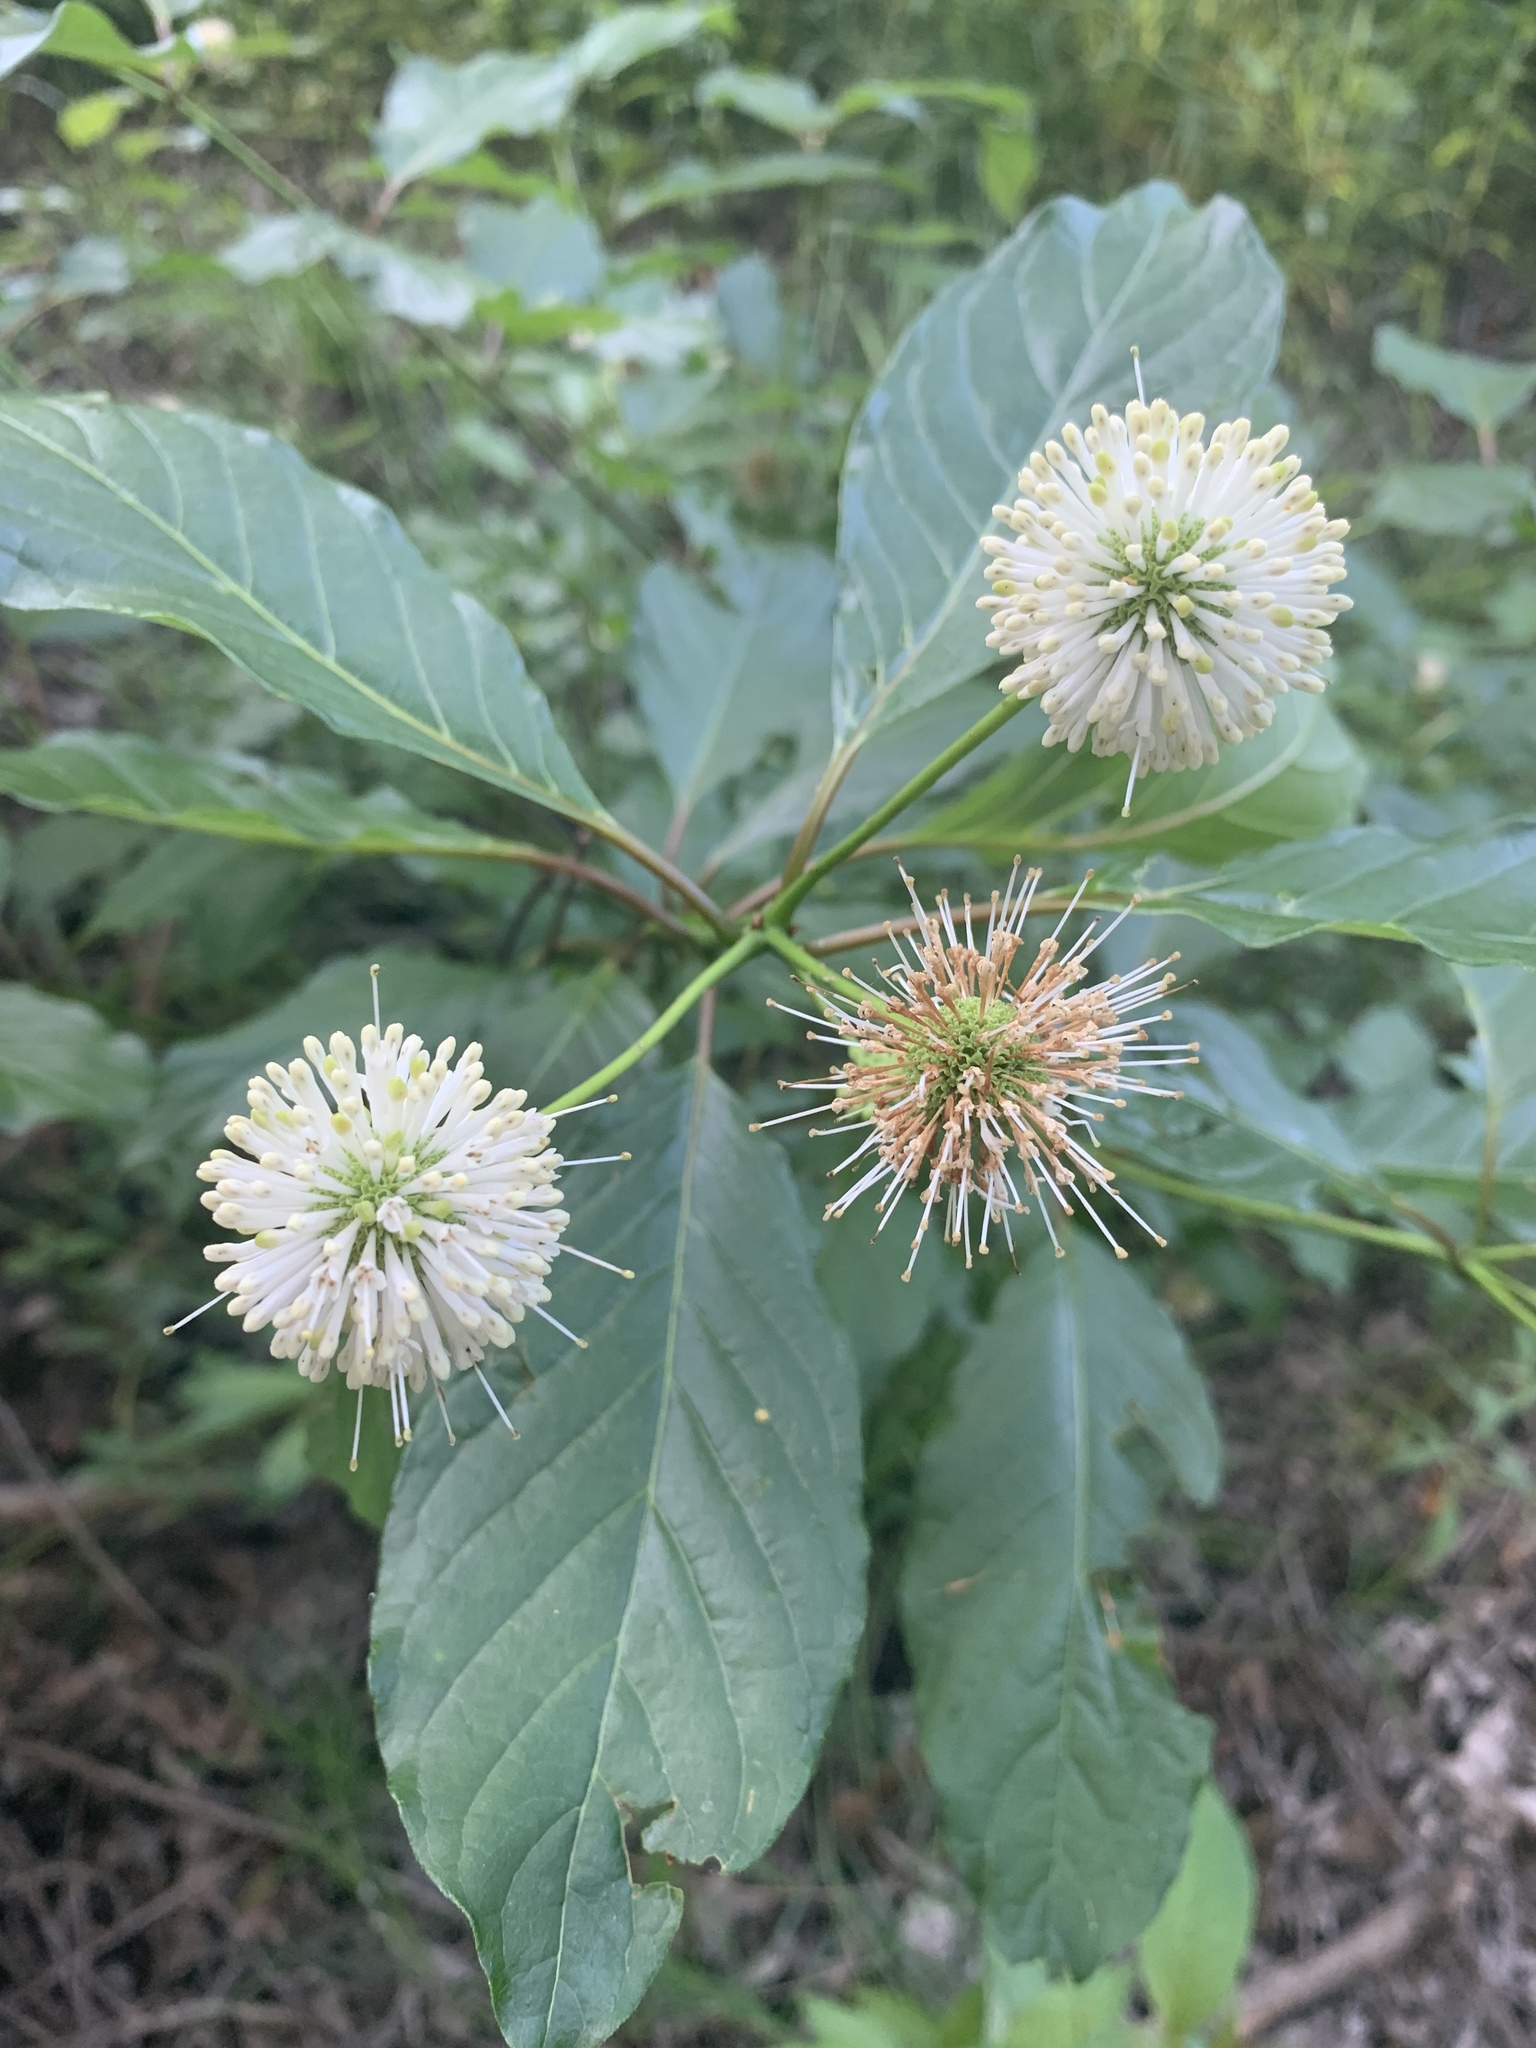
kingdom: Plantae
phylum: Tracheophyta
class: Magnoliopsida
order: Gentianales
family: Rubiaceae
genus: Cephalanthus
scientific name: Cephalanthus occidentalis
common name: Button-willow
